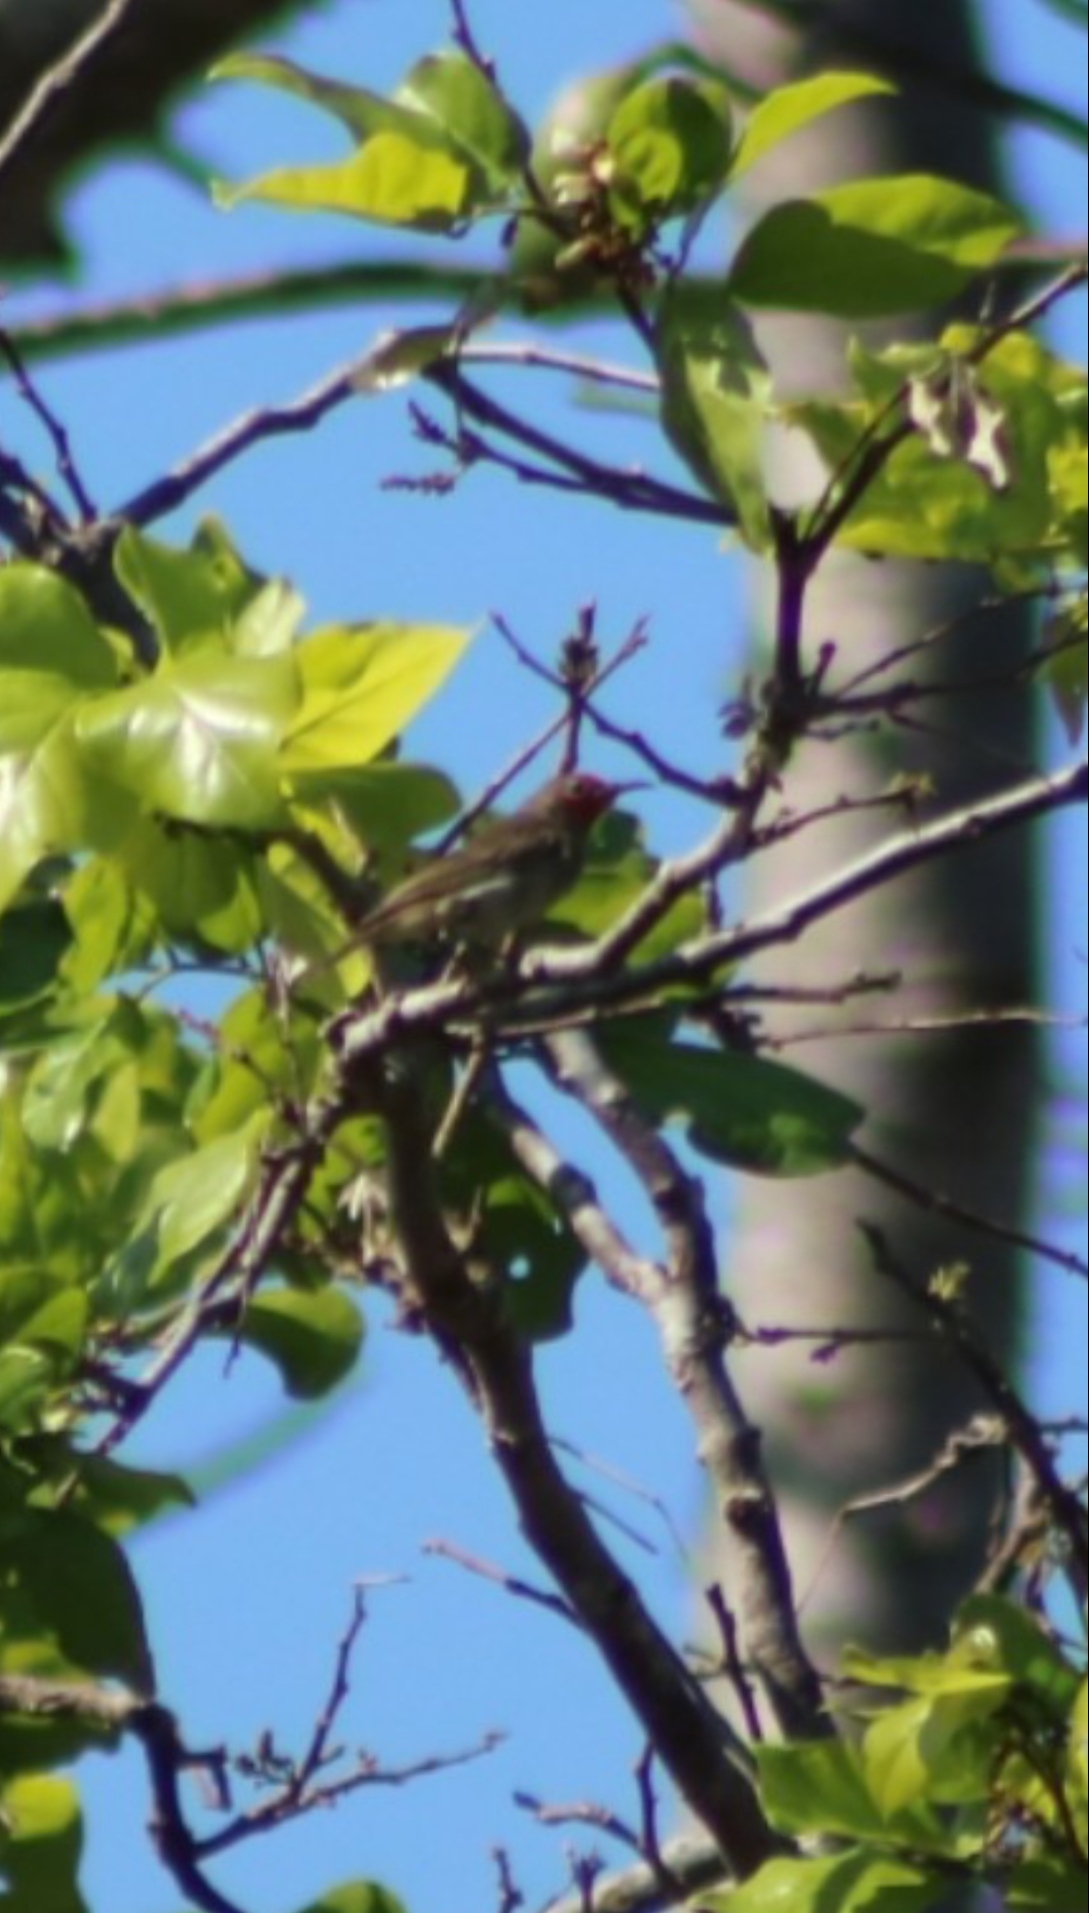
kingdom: Animalia
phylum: Chordata
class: Aves
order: Passeriformes
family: Meliphagidae
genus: Myzomela
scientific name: Myzomela erythrocephala
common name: Red-headed myzomela
